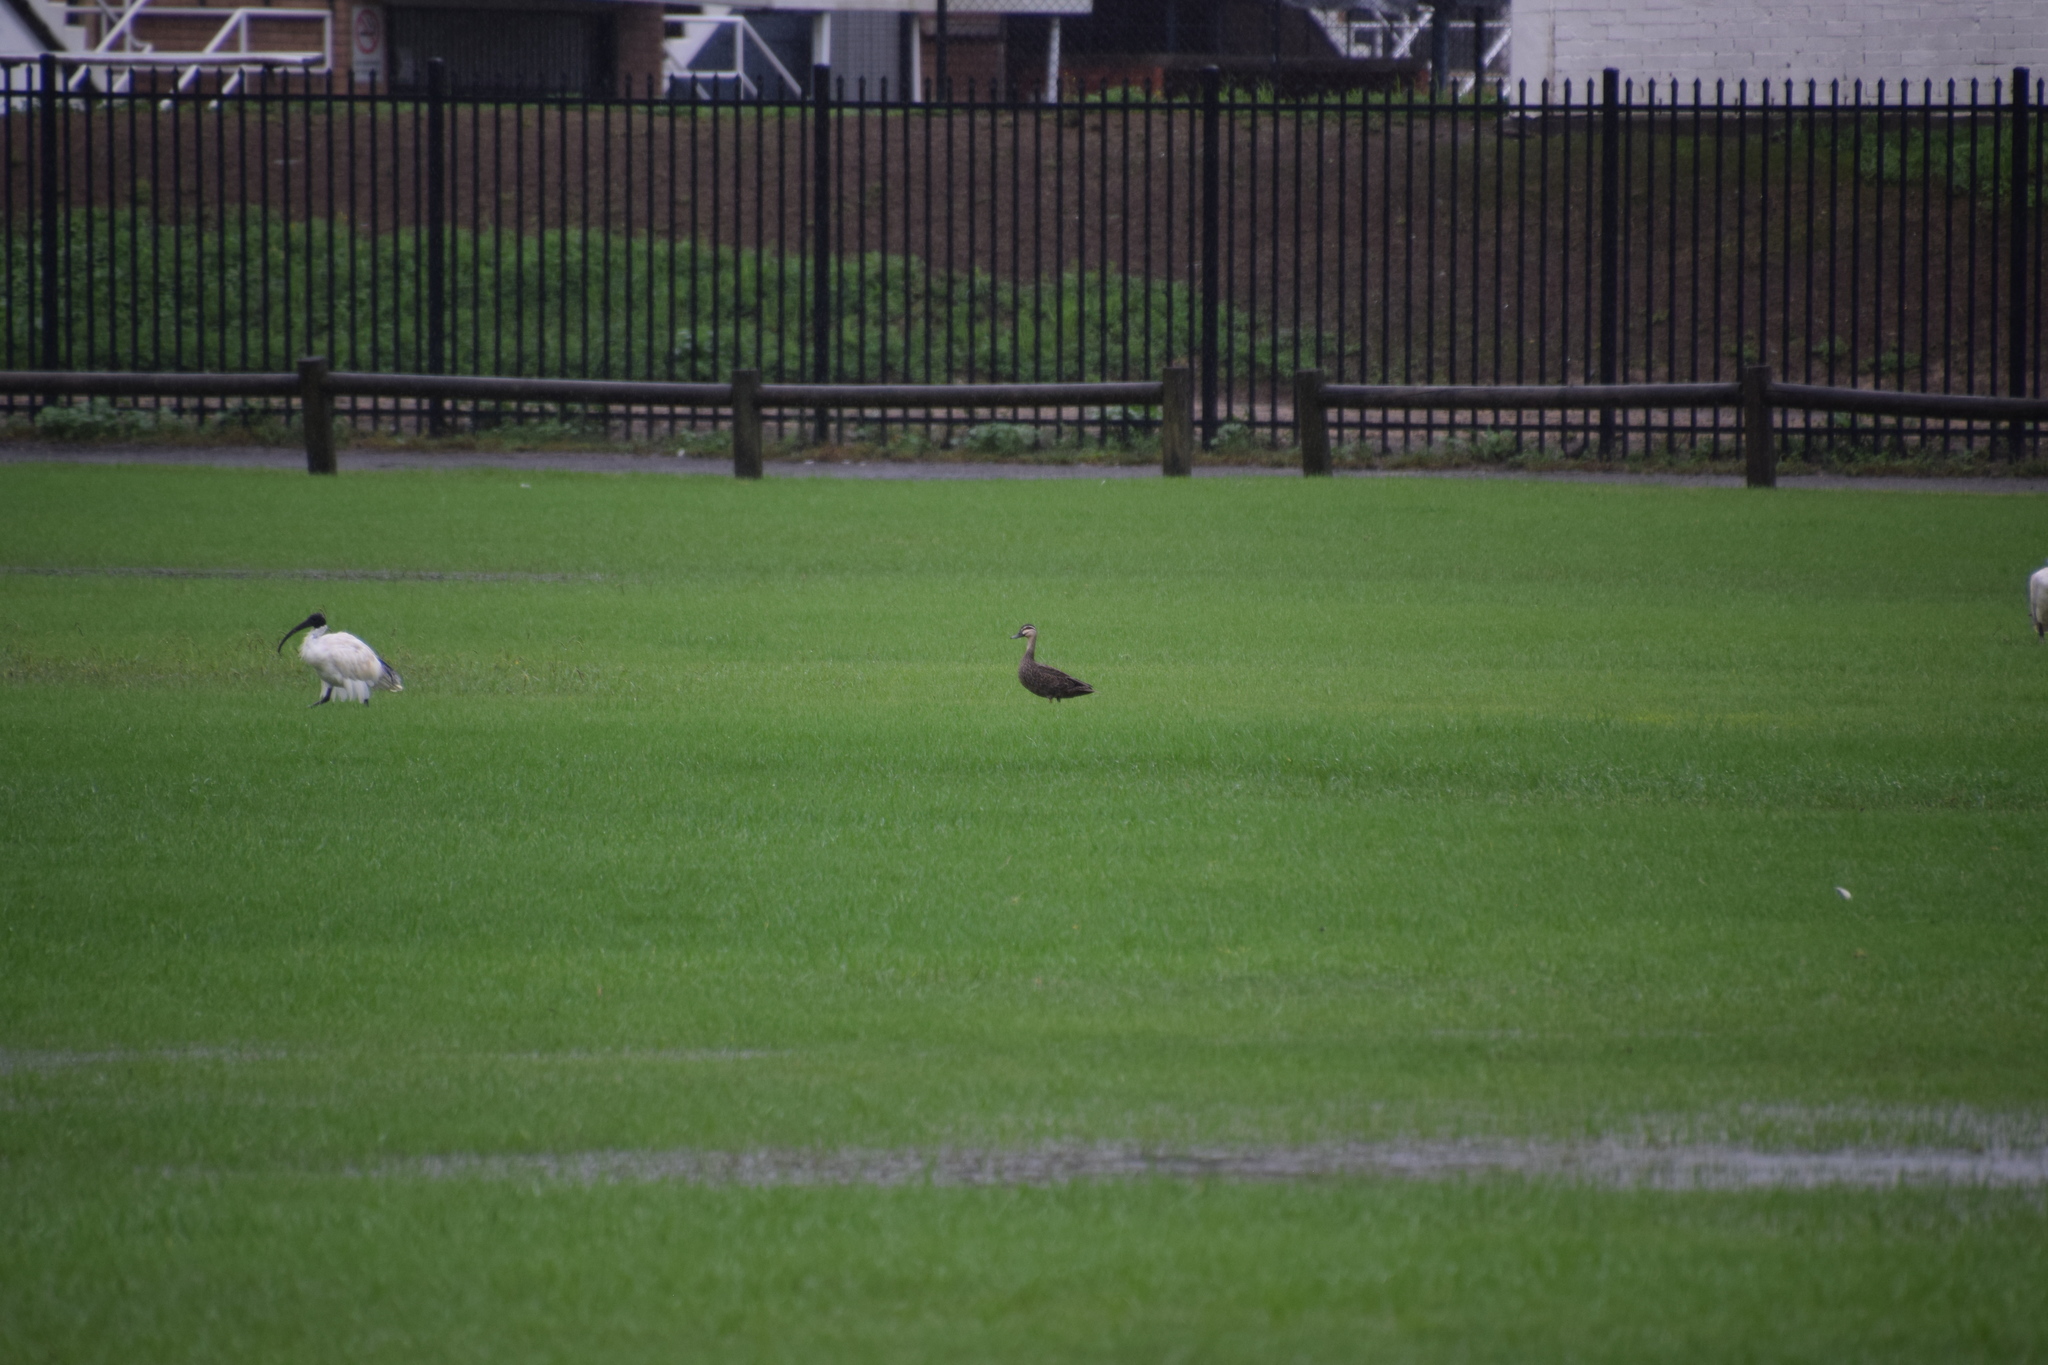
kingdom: Animalia
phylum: Chordata
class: Aves
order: Anseriformes
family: Anatidae
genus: Anas
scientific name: Anas superciliosa
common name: Pacific black duck
